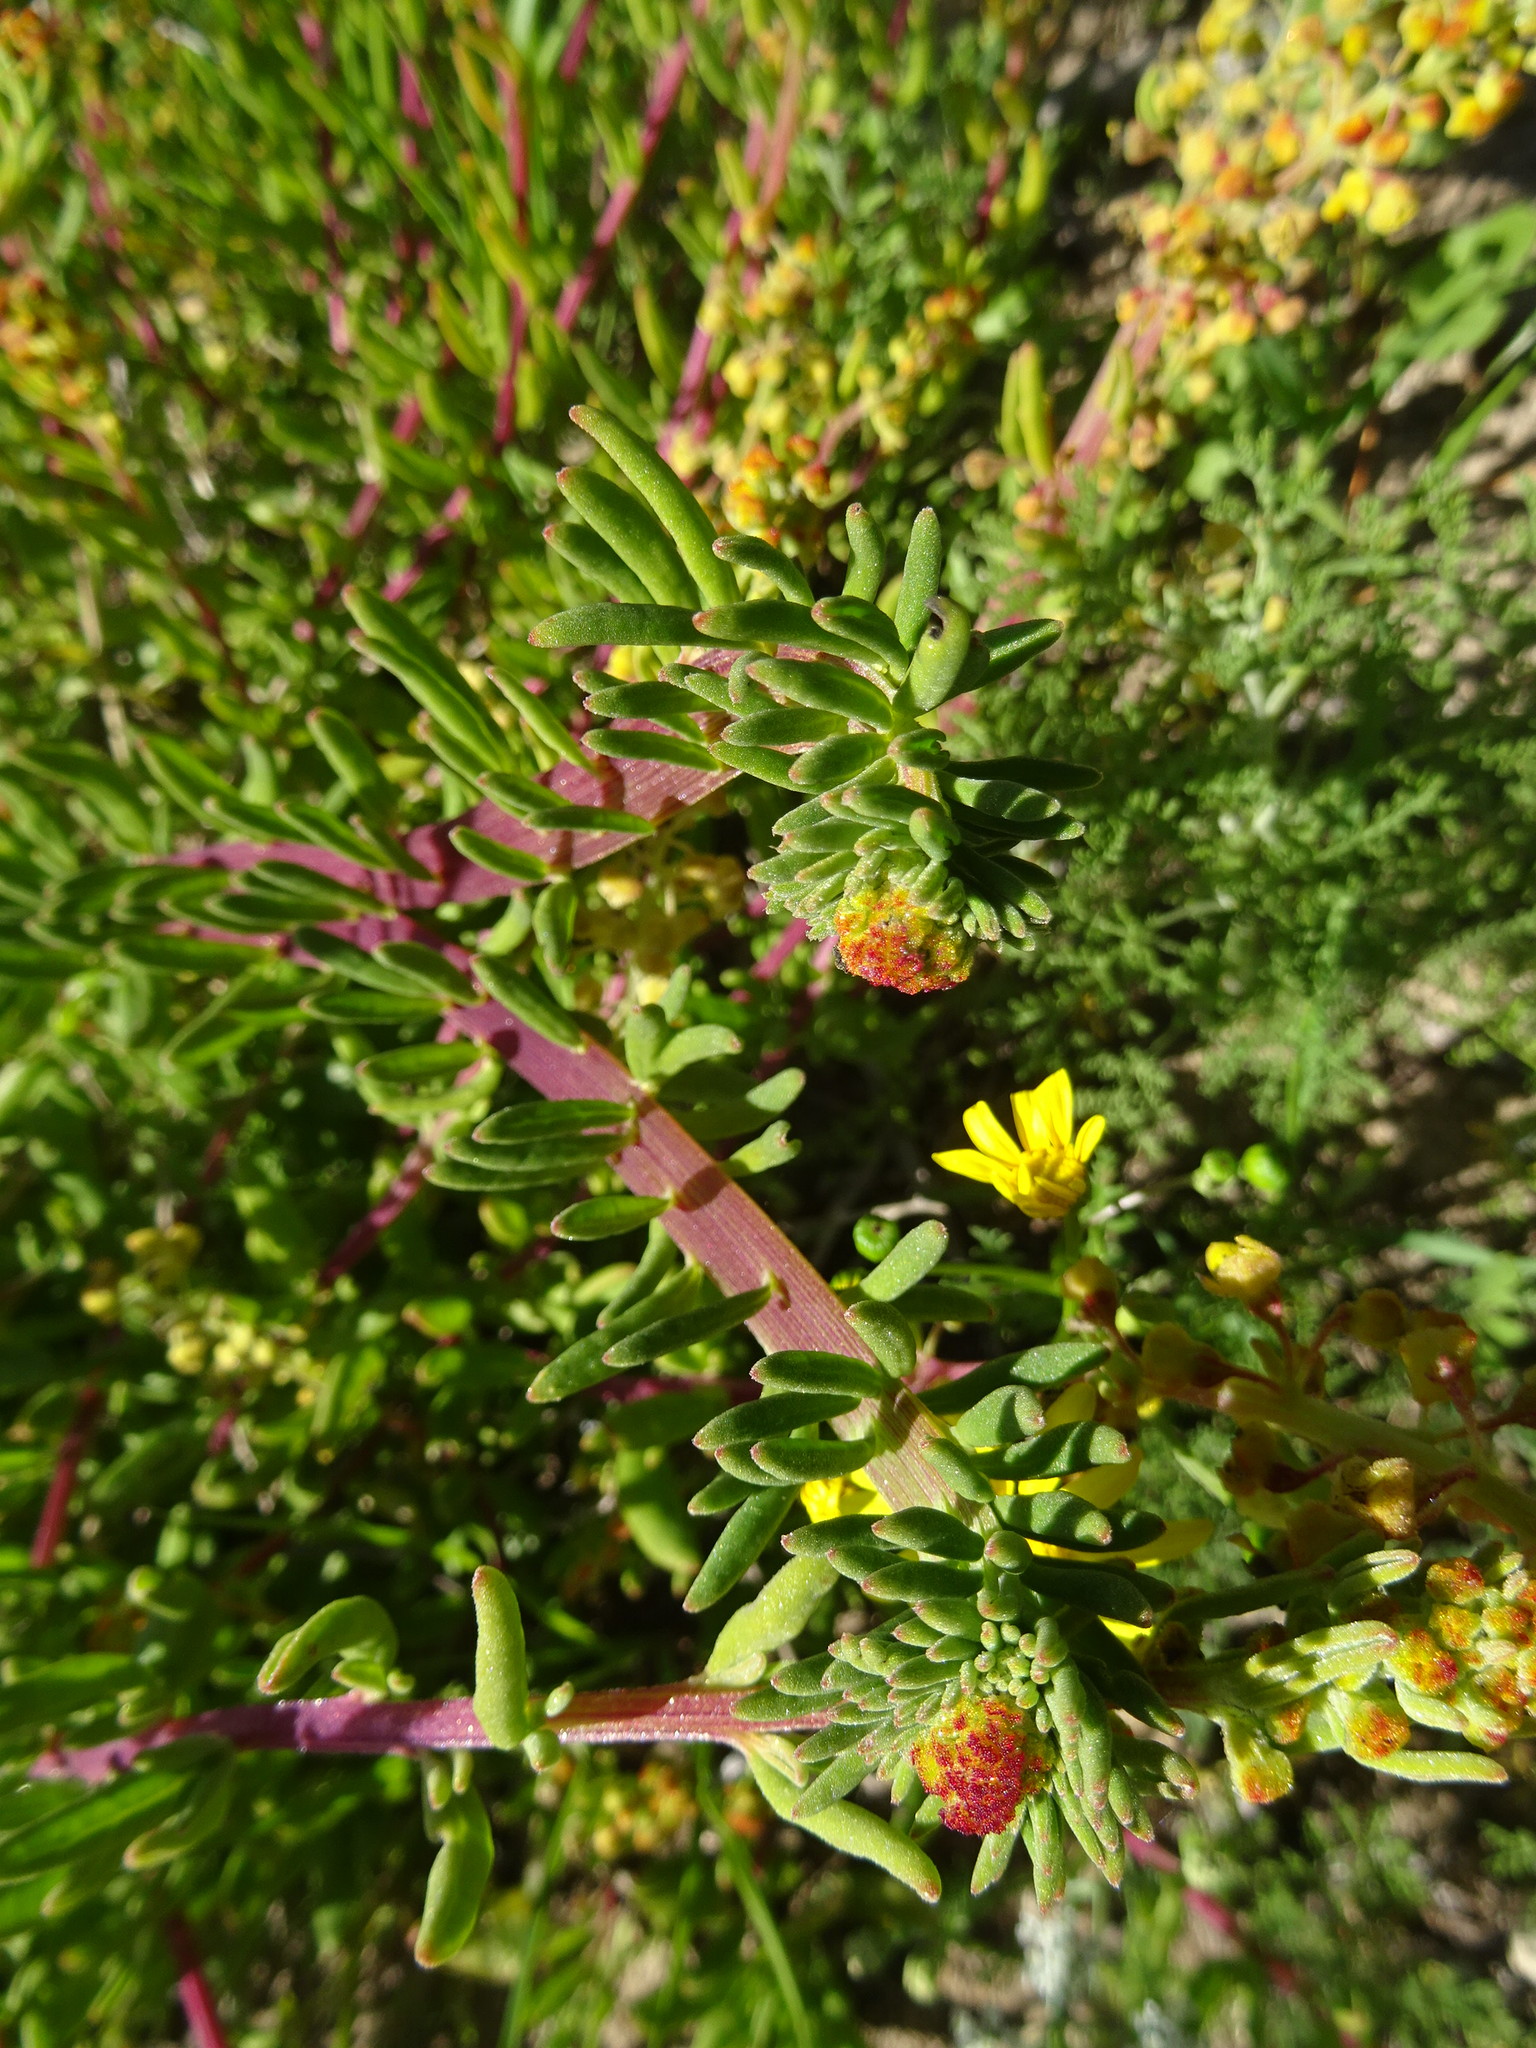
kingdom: Plantae
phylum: Tracheophyta
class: Magnoliopsida
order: Caryophyllales
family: Aizoaceae
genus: Tetragonia
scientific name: Tetragonia fruticosa
